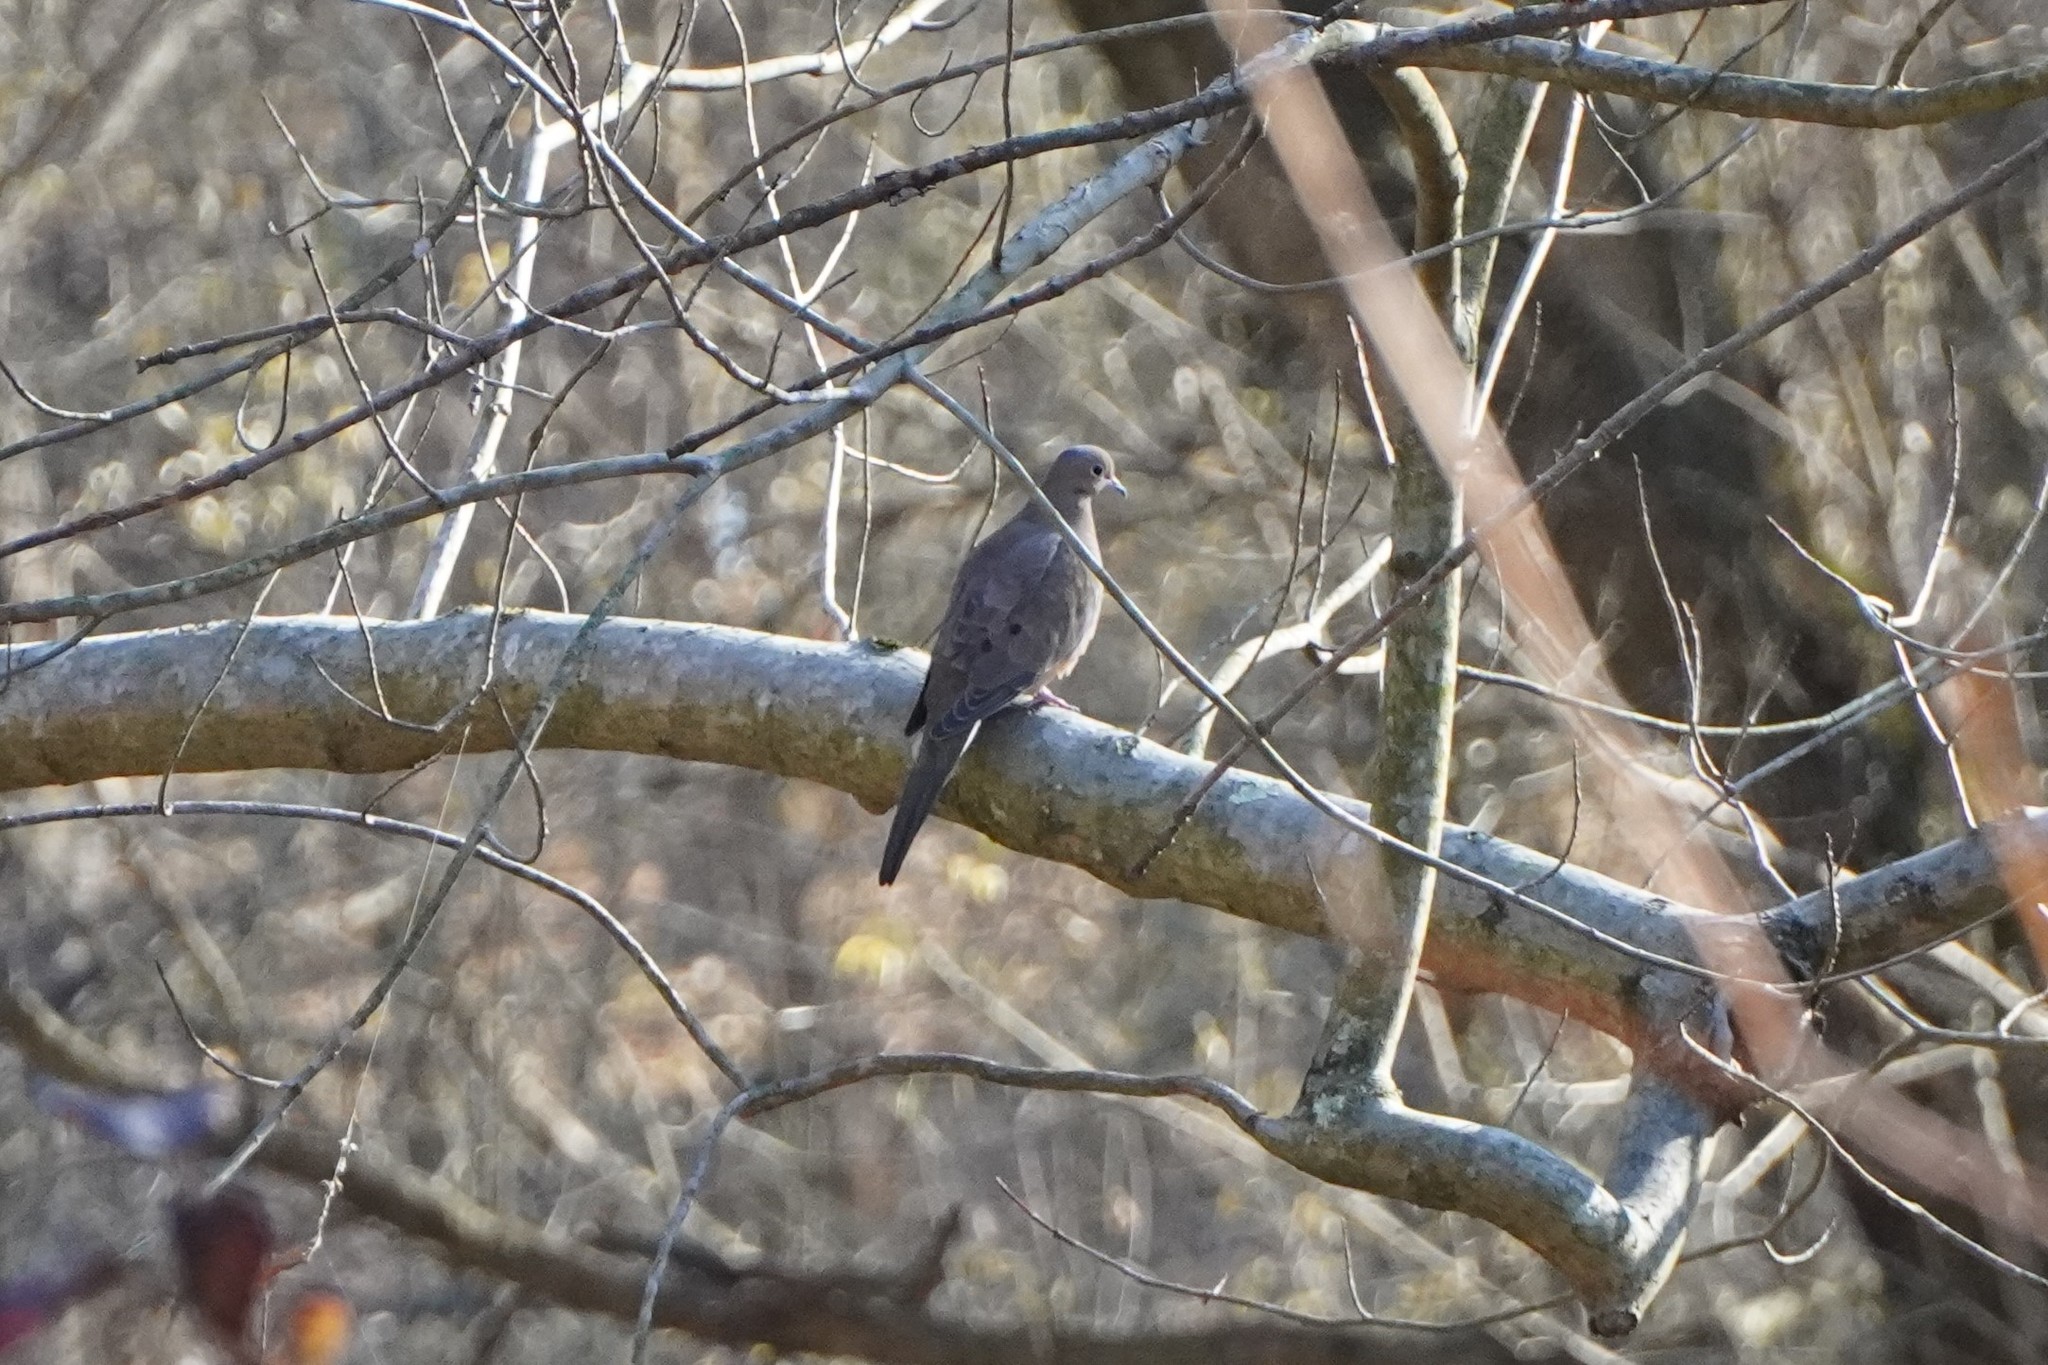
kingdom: Animalia
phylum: Chordata
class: Aves
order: Columbiformes
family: Columbidae
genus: Zenaida
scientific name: Zenaida macroura
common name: Mourning dove
